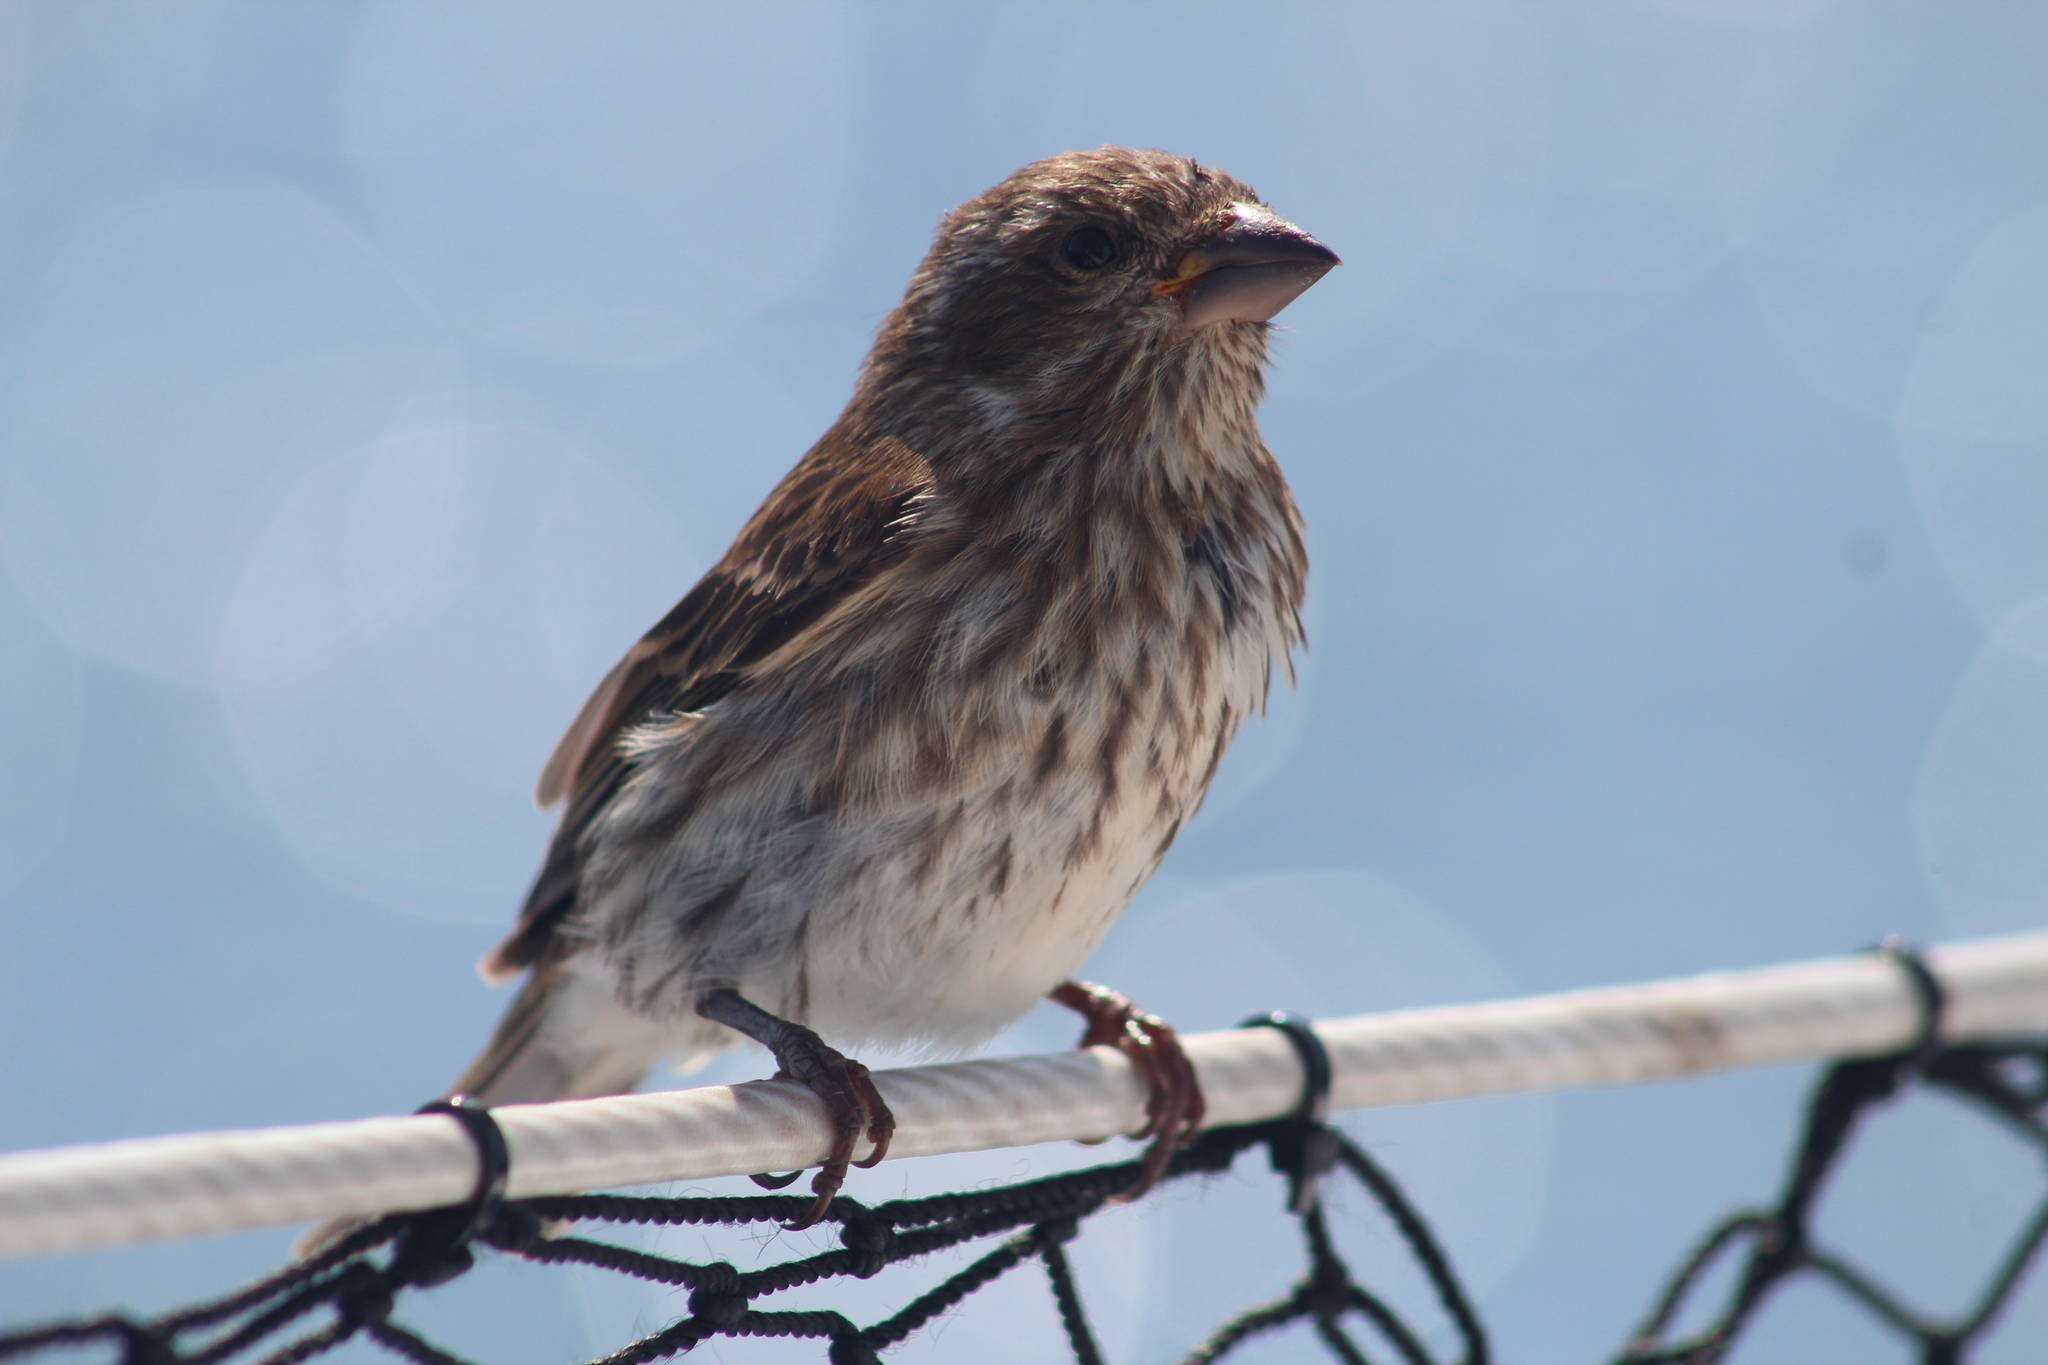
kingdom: Animalia
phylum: Chordata
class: Aves
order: Passeriformes
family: Fringillidae
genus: Haemorhous
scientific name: Haemorhous purpureus
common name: Purple finch
